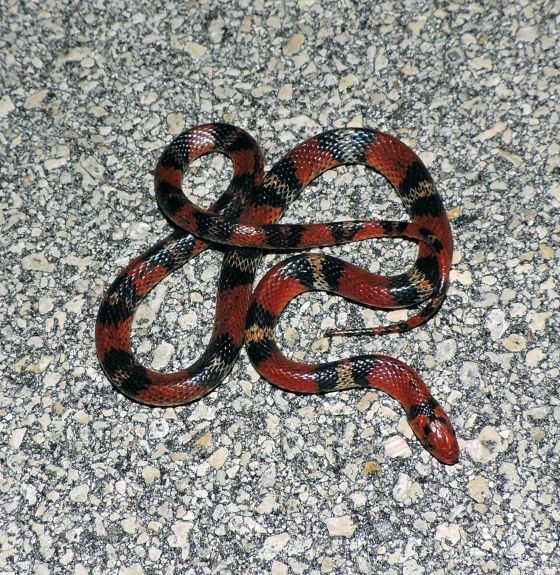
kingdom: Animalia
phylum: Chordata
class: Squamata
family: Colubridae
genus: Cemophora
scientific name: Cemophora coccinea
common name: Scarlet snake
